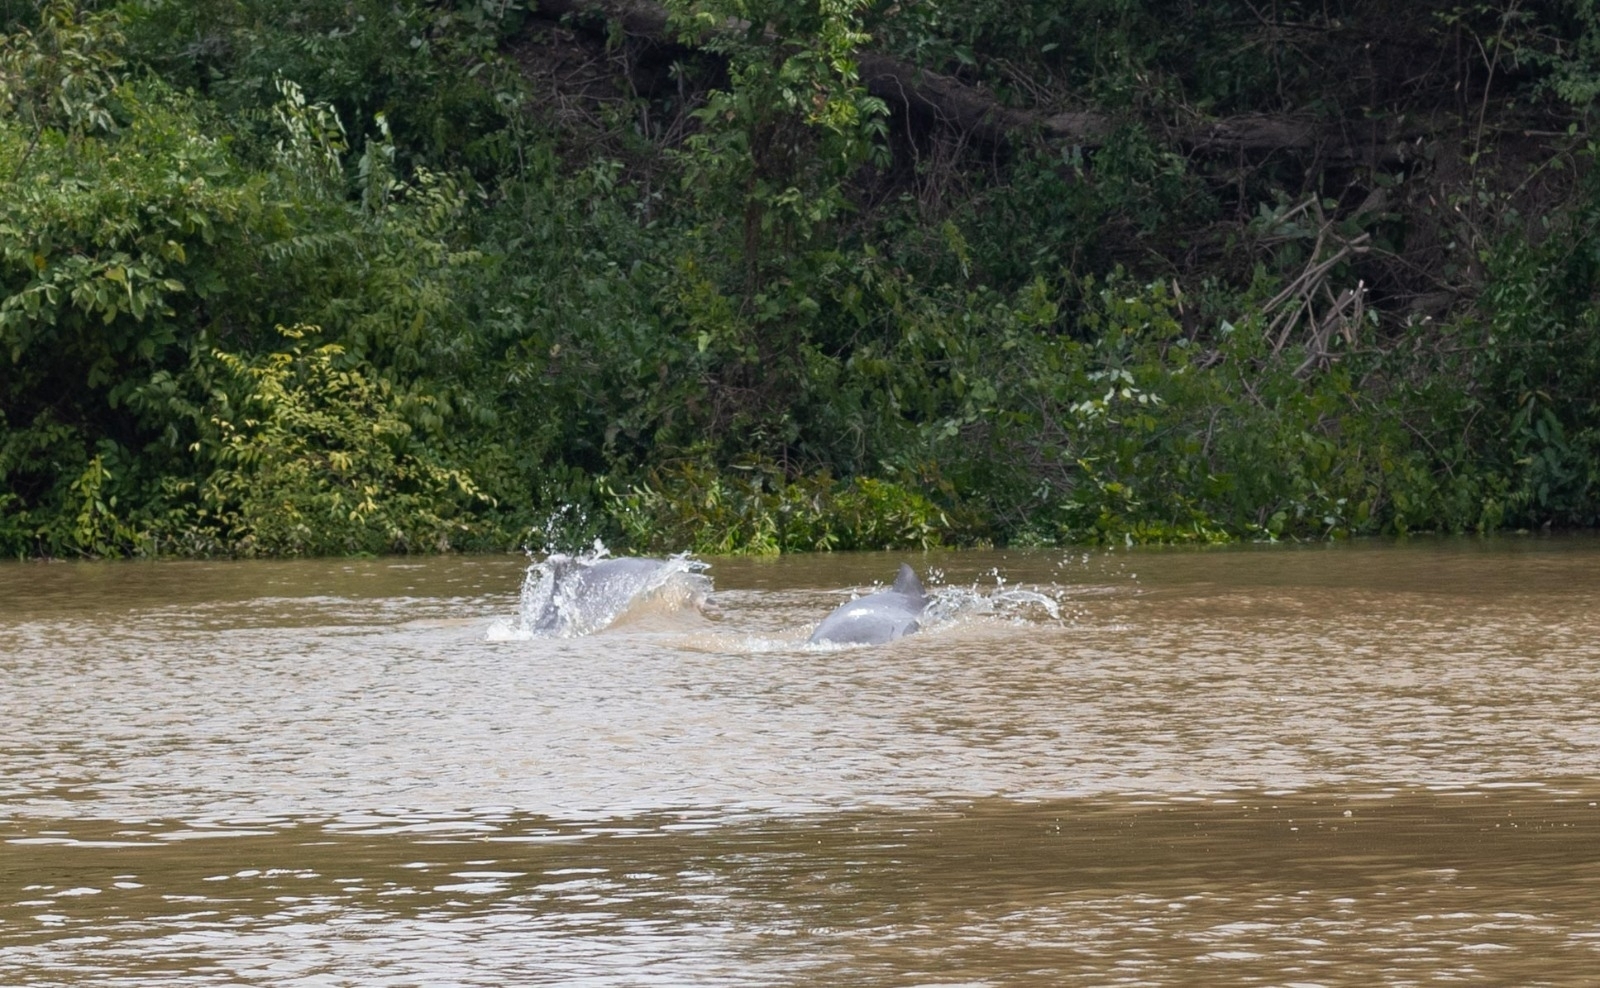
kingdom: Animalia
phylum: Chordata
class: Mammalia
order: Cetacea
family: Delphinidae
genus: Sotalia
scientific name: Sotalia fluviatilis
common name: Tucuxi
